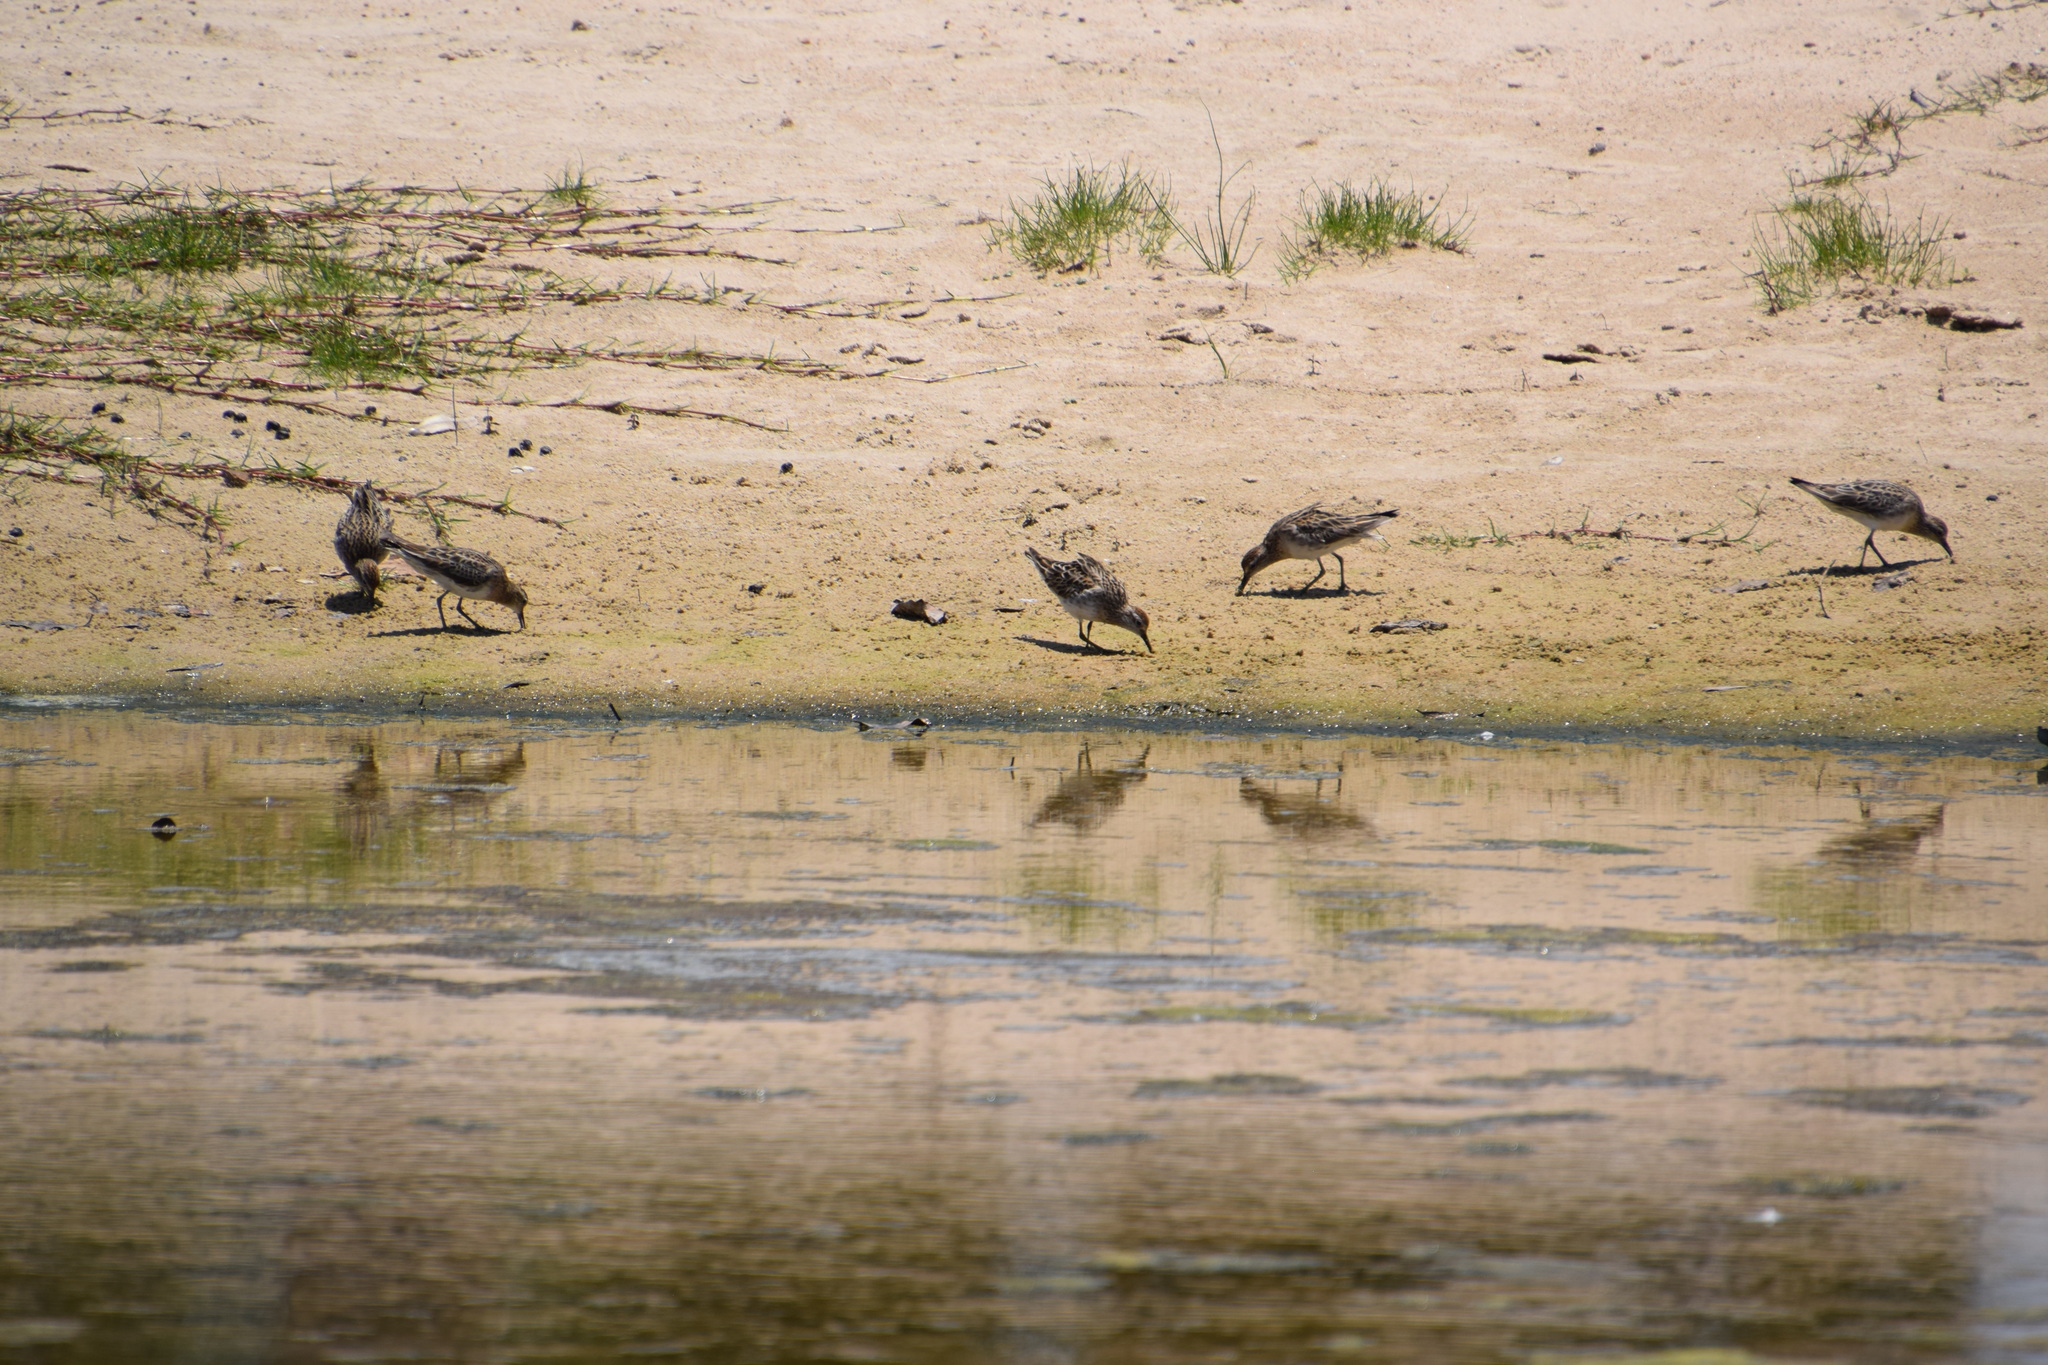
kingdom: Animalia
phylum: Chordata
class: Aves
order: Charadriiformes
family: Scolopacidae
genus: Calidris
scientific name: Calidris acuminata
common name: Sharp-tailed sandpiper
